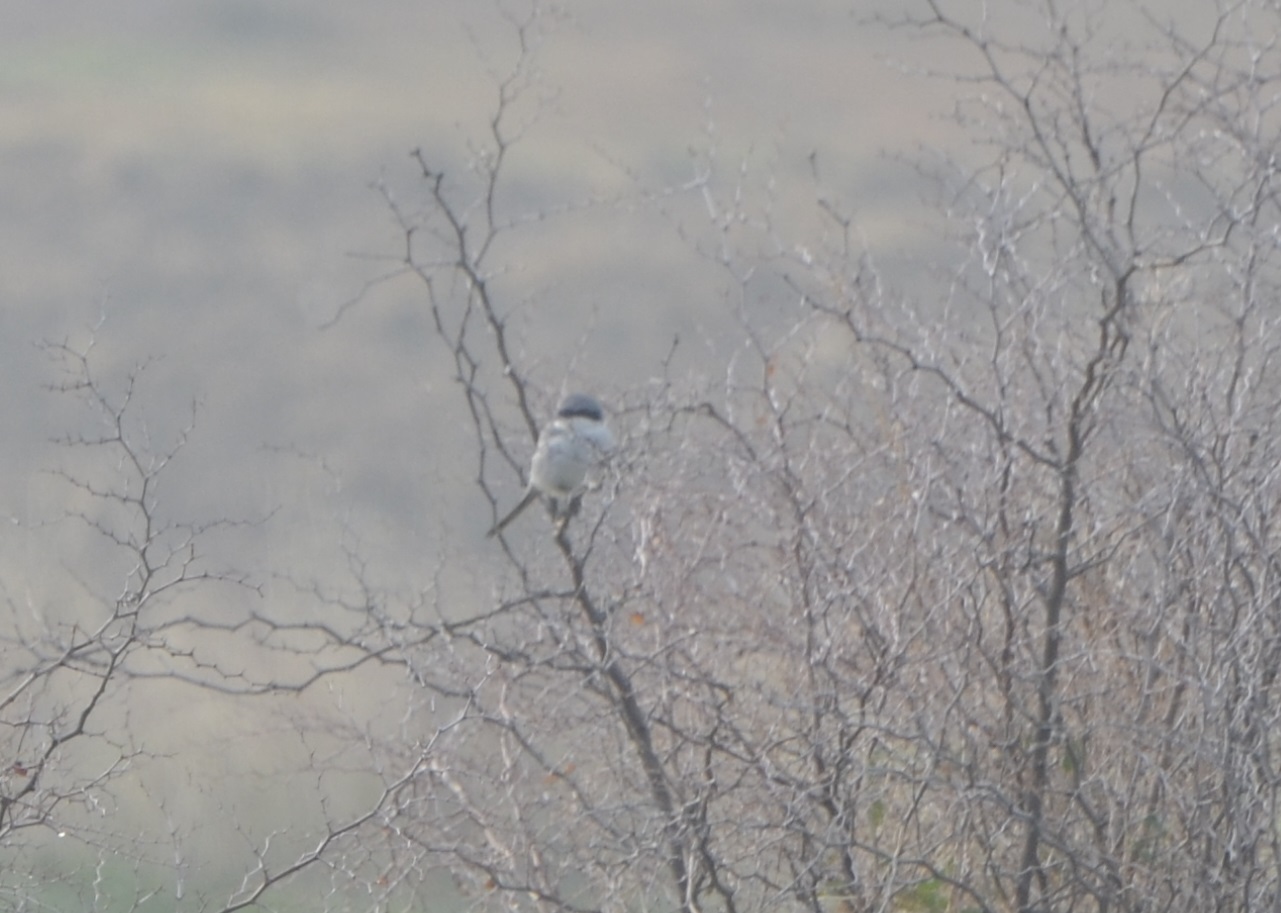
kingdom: Animalia
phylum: Chordata
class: Aves
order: Passeriformes
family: Laniidae
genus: Lanius
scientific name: Lanius excubitor
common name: Great grey shrike
